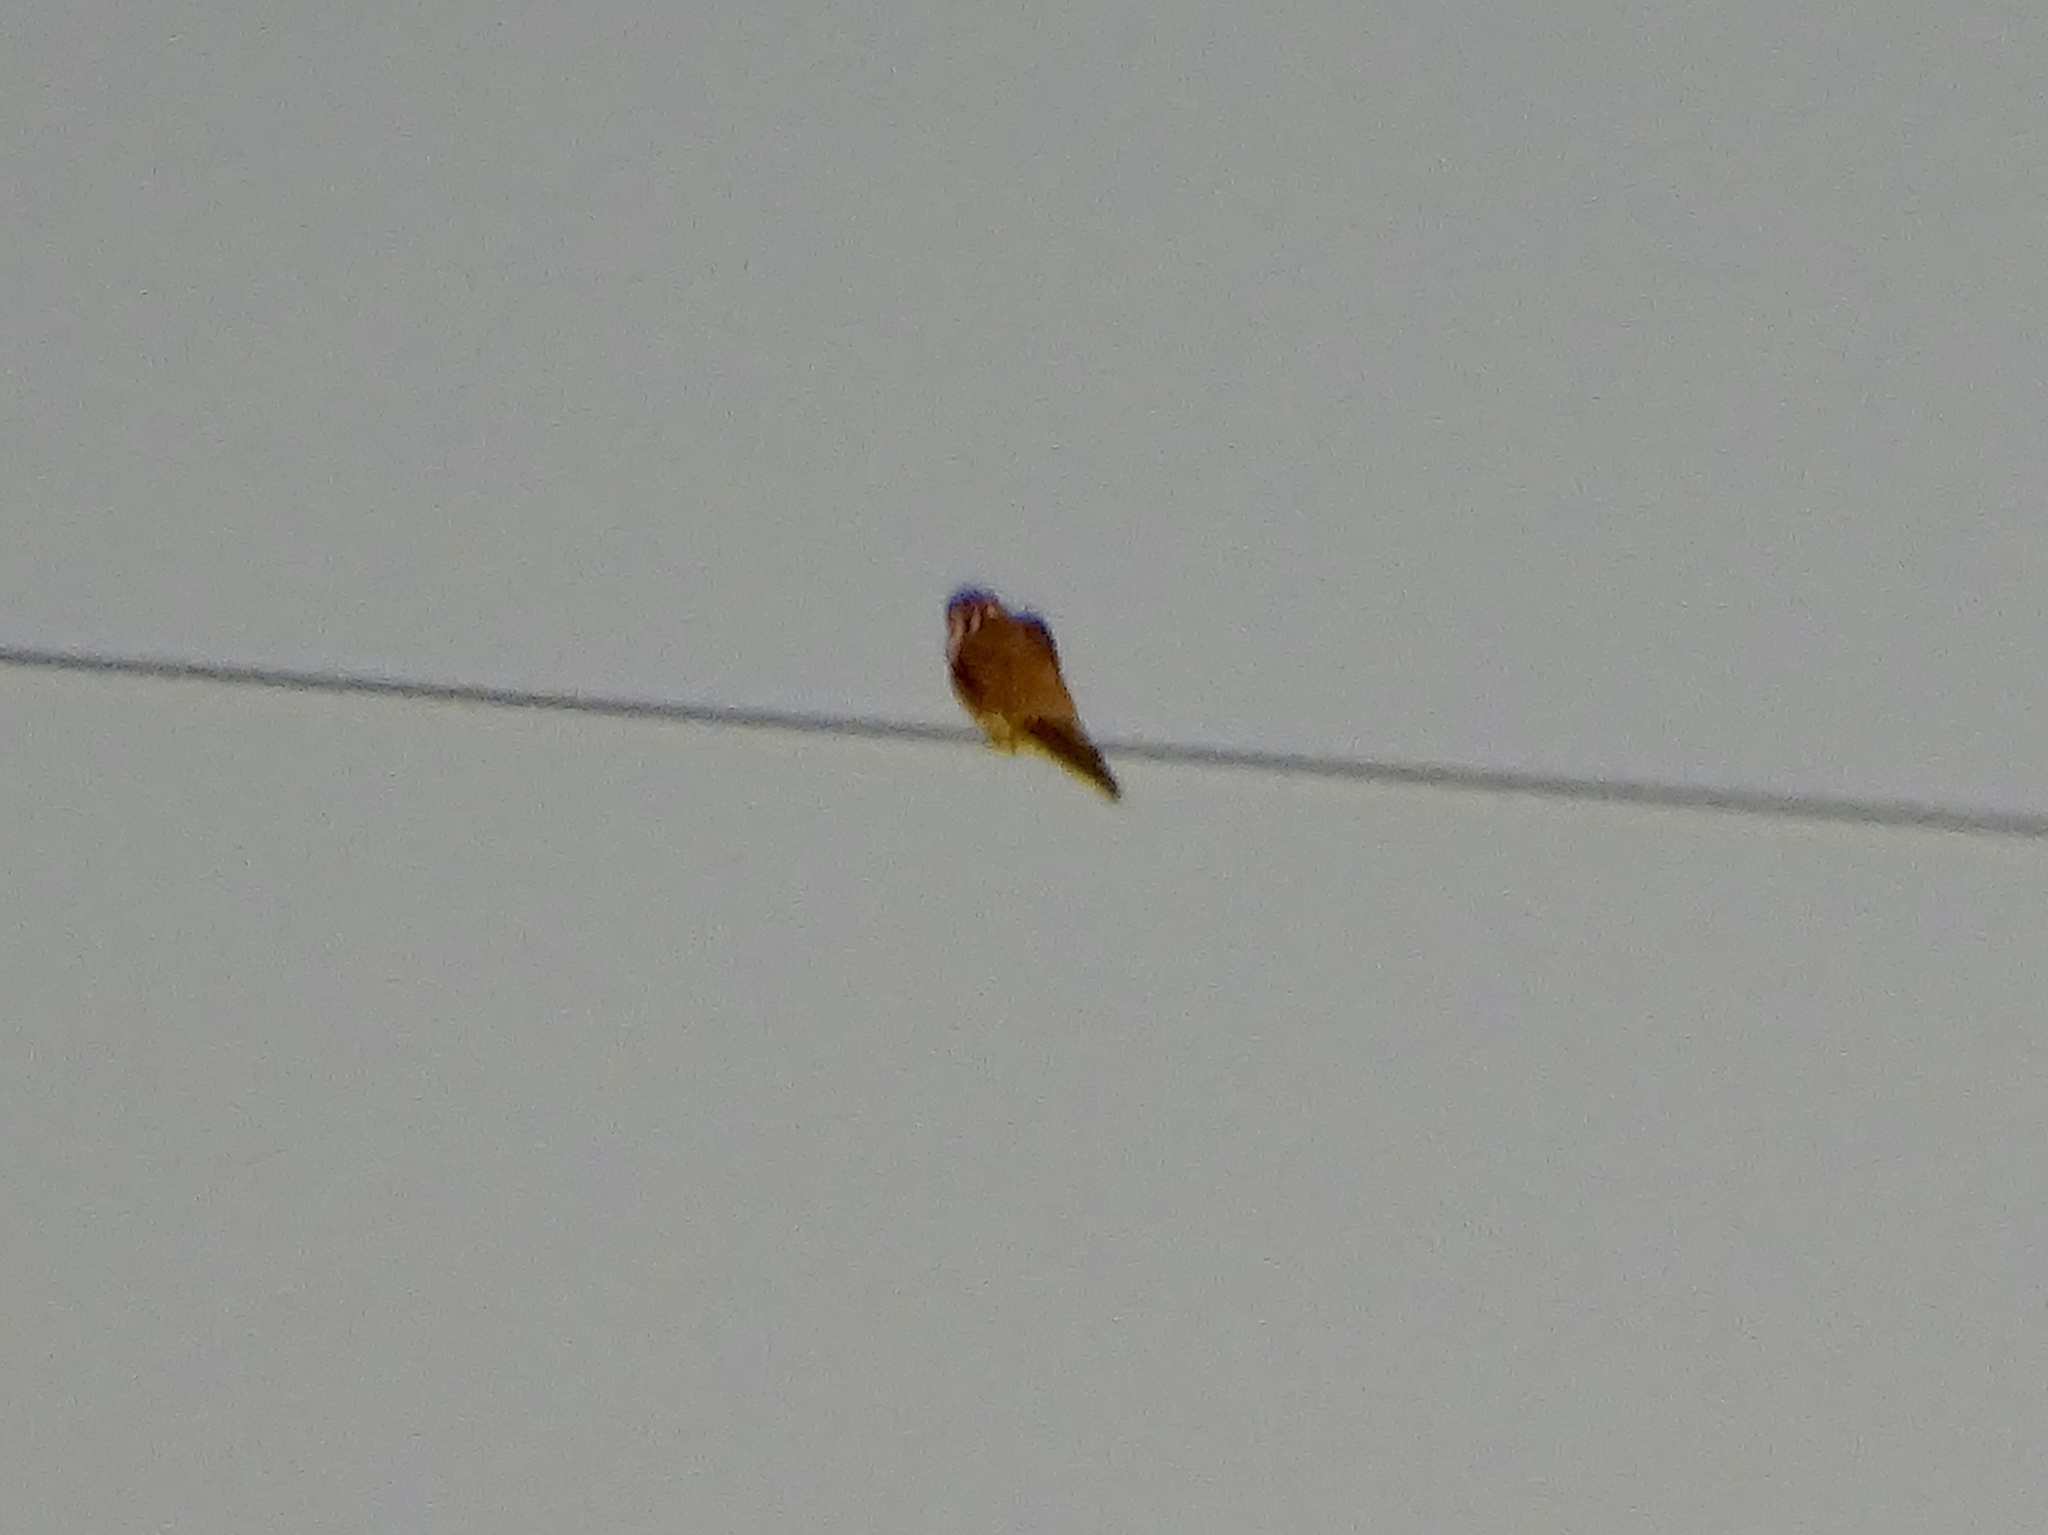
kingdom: Animalia
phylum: Chordata
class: Aves
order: Falconiformes
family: Falconidae
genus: Falco
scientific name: Falco sparverius
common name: American kestrel
